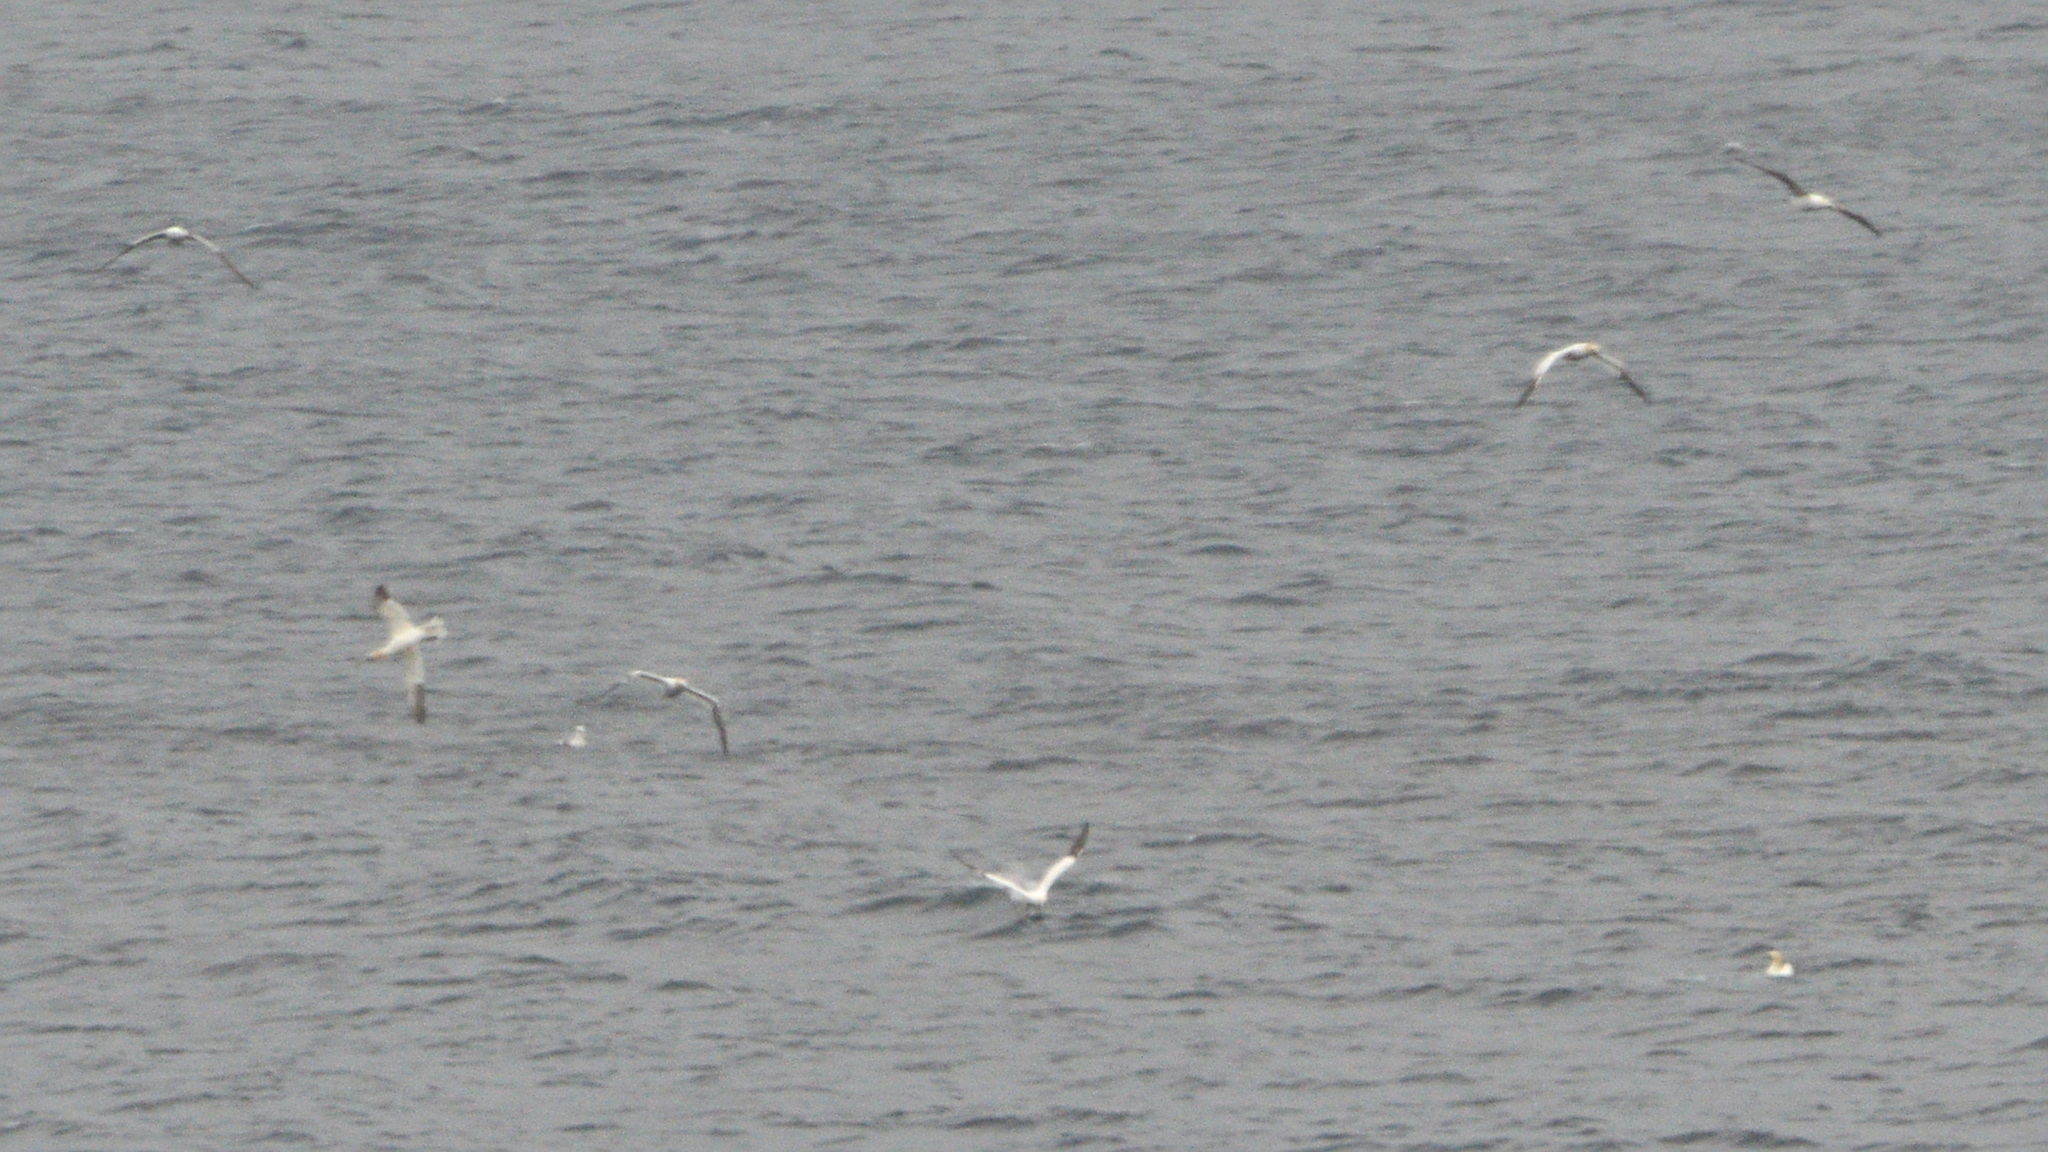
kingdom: Animalia
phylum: Chordata
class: Aves
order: Suliformes
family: Sulidae
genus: Morus
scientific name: Morus bassanus
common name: Northern gannet
